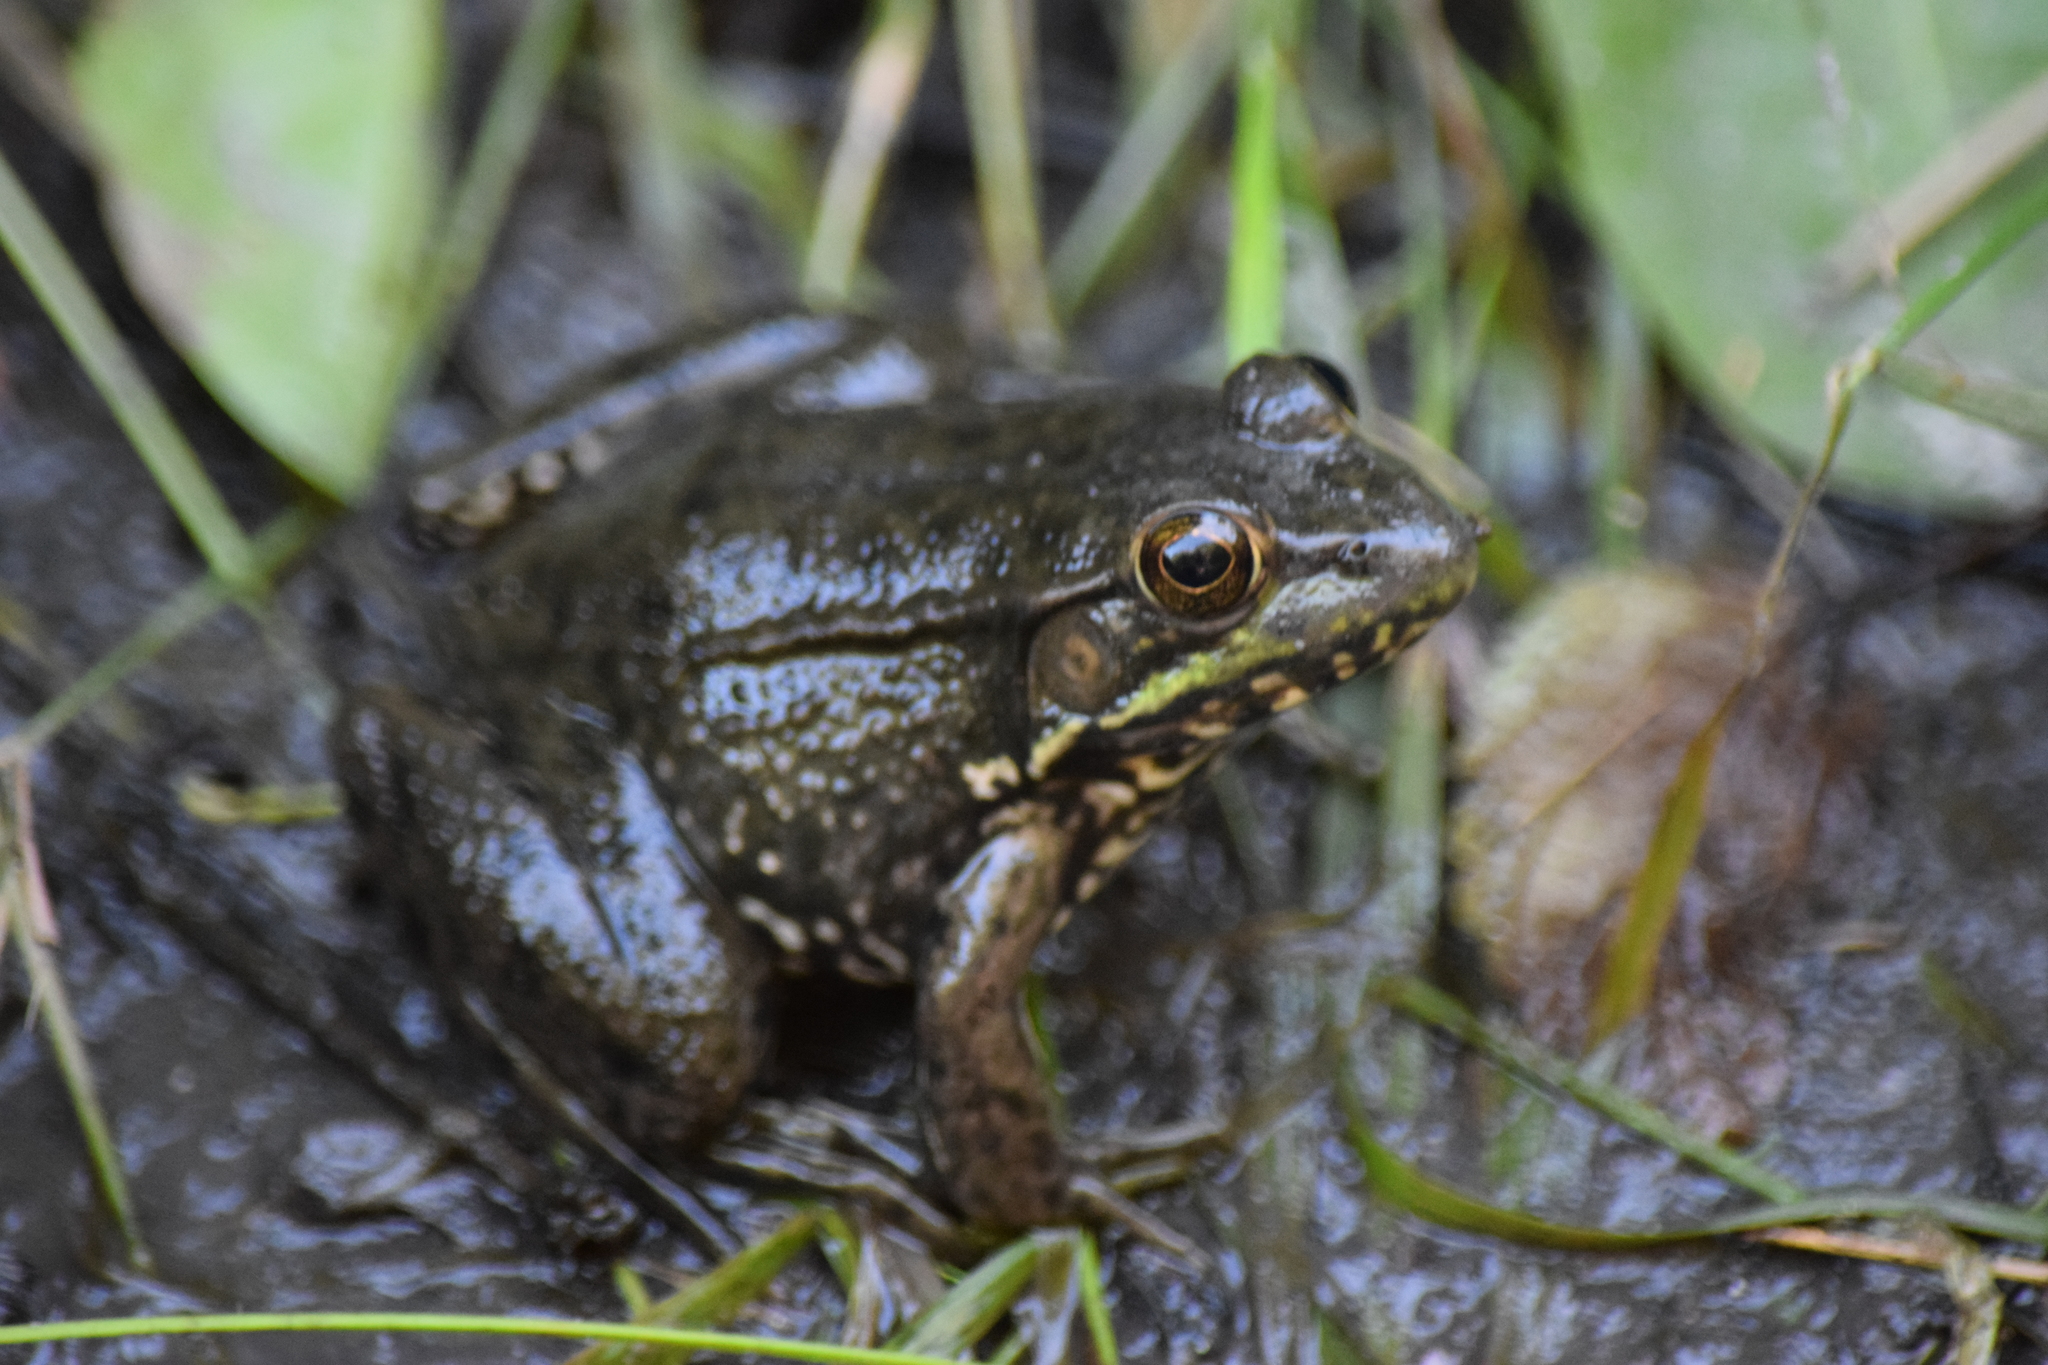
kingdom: Animalia
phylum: Chordata
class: Amphibia
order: Anura
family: Ranidae
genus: Lithobates
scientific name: Lithobates clamitans
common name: Green frog
